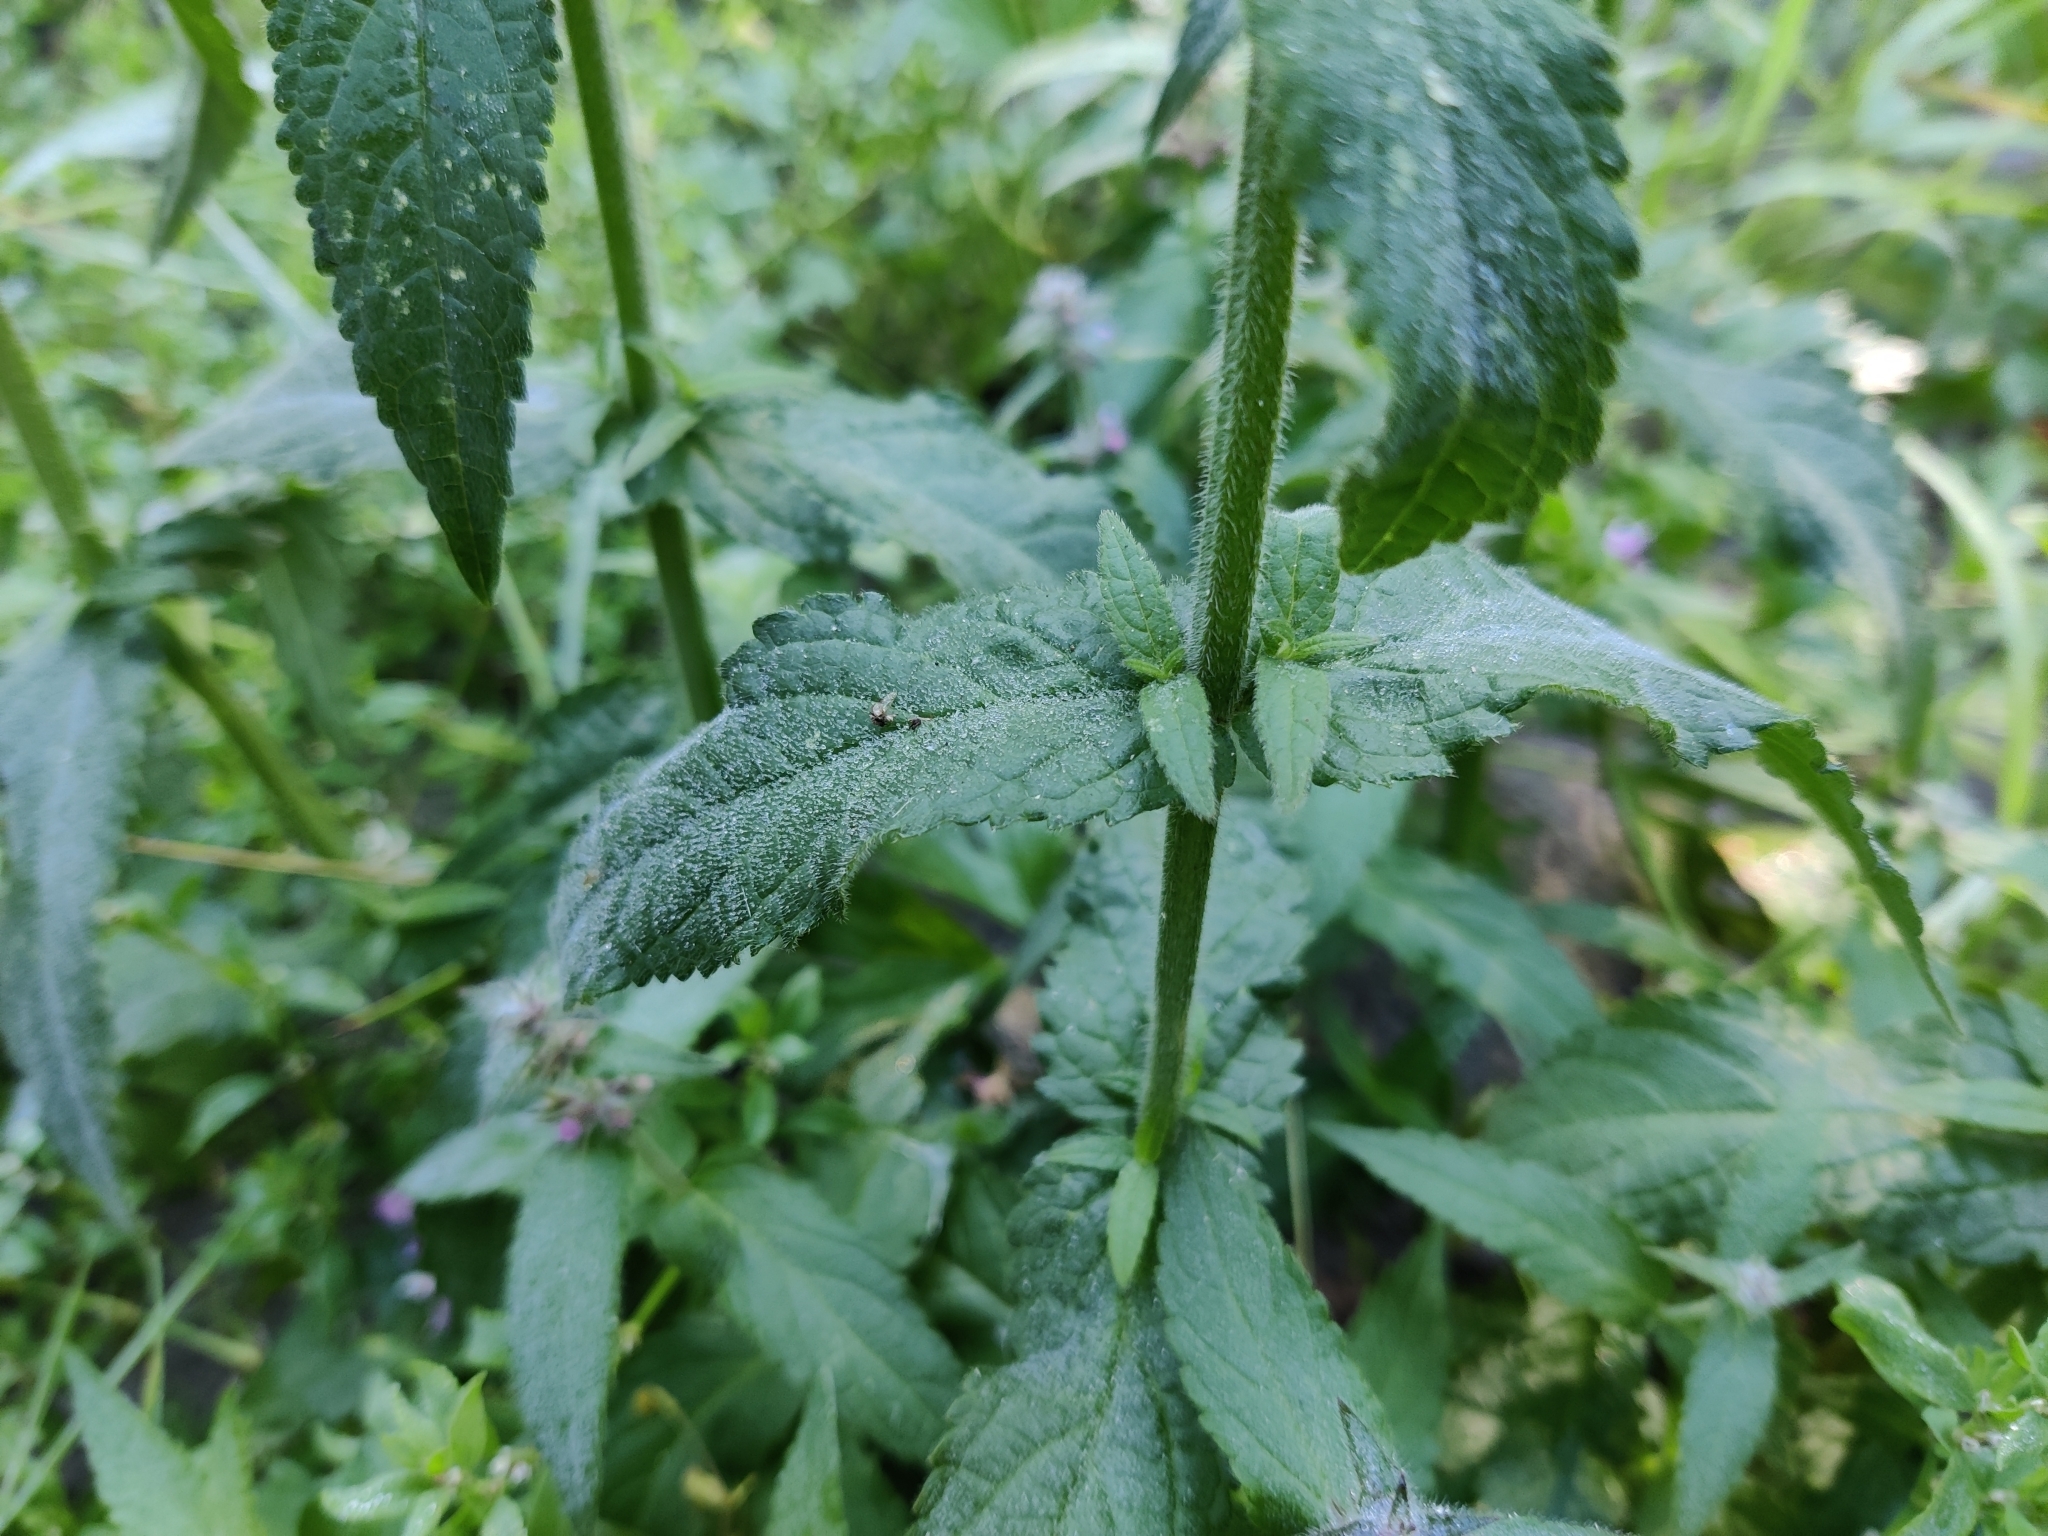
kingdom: Plantae
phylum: Tracheophyta
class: Magnoliopsida
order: Lamiales
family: Lamiaceae
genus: Stachys
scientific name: Stachys palustris
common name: Marsh woundwort
